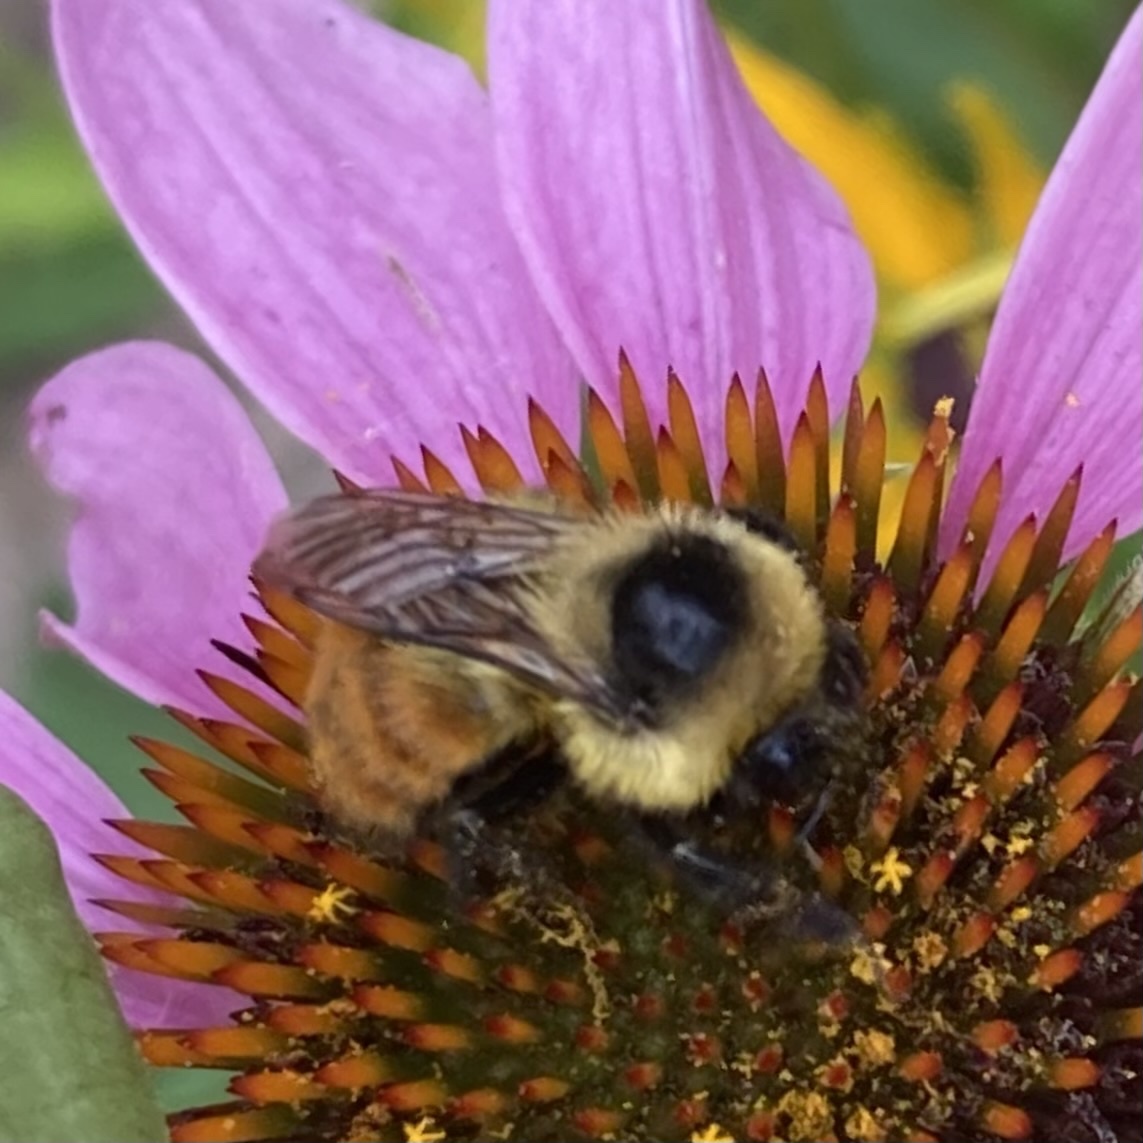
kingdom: Animalia
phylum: Arthropoda
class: Insecta
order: Hymenoptera
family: Apidae
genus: Bombus
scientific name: Bombus rufocinctus
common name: Red-belted bumble bee
